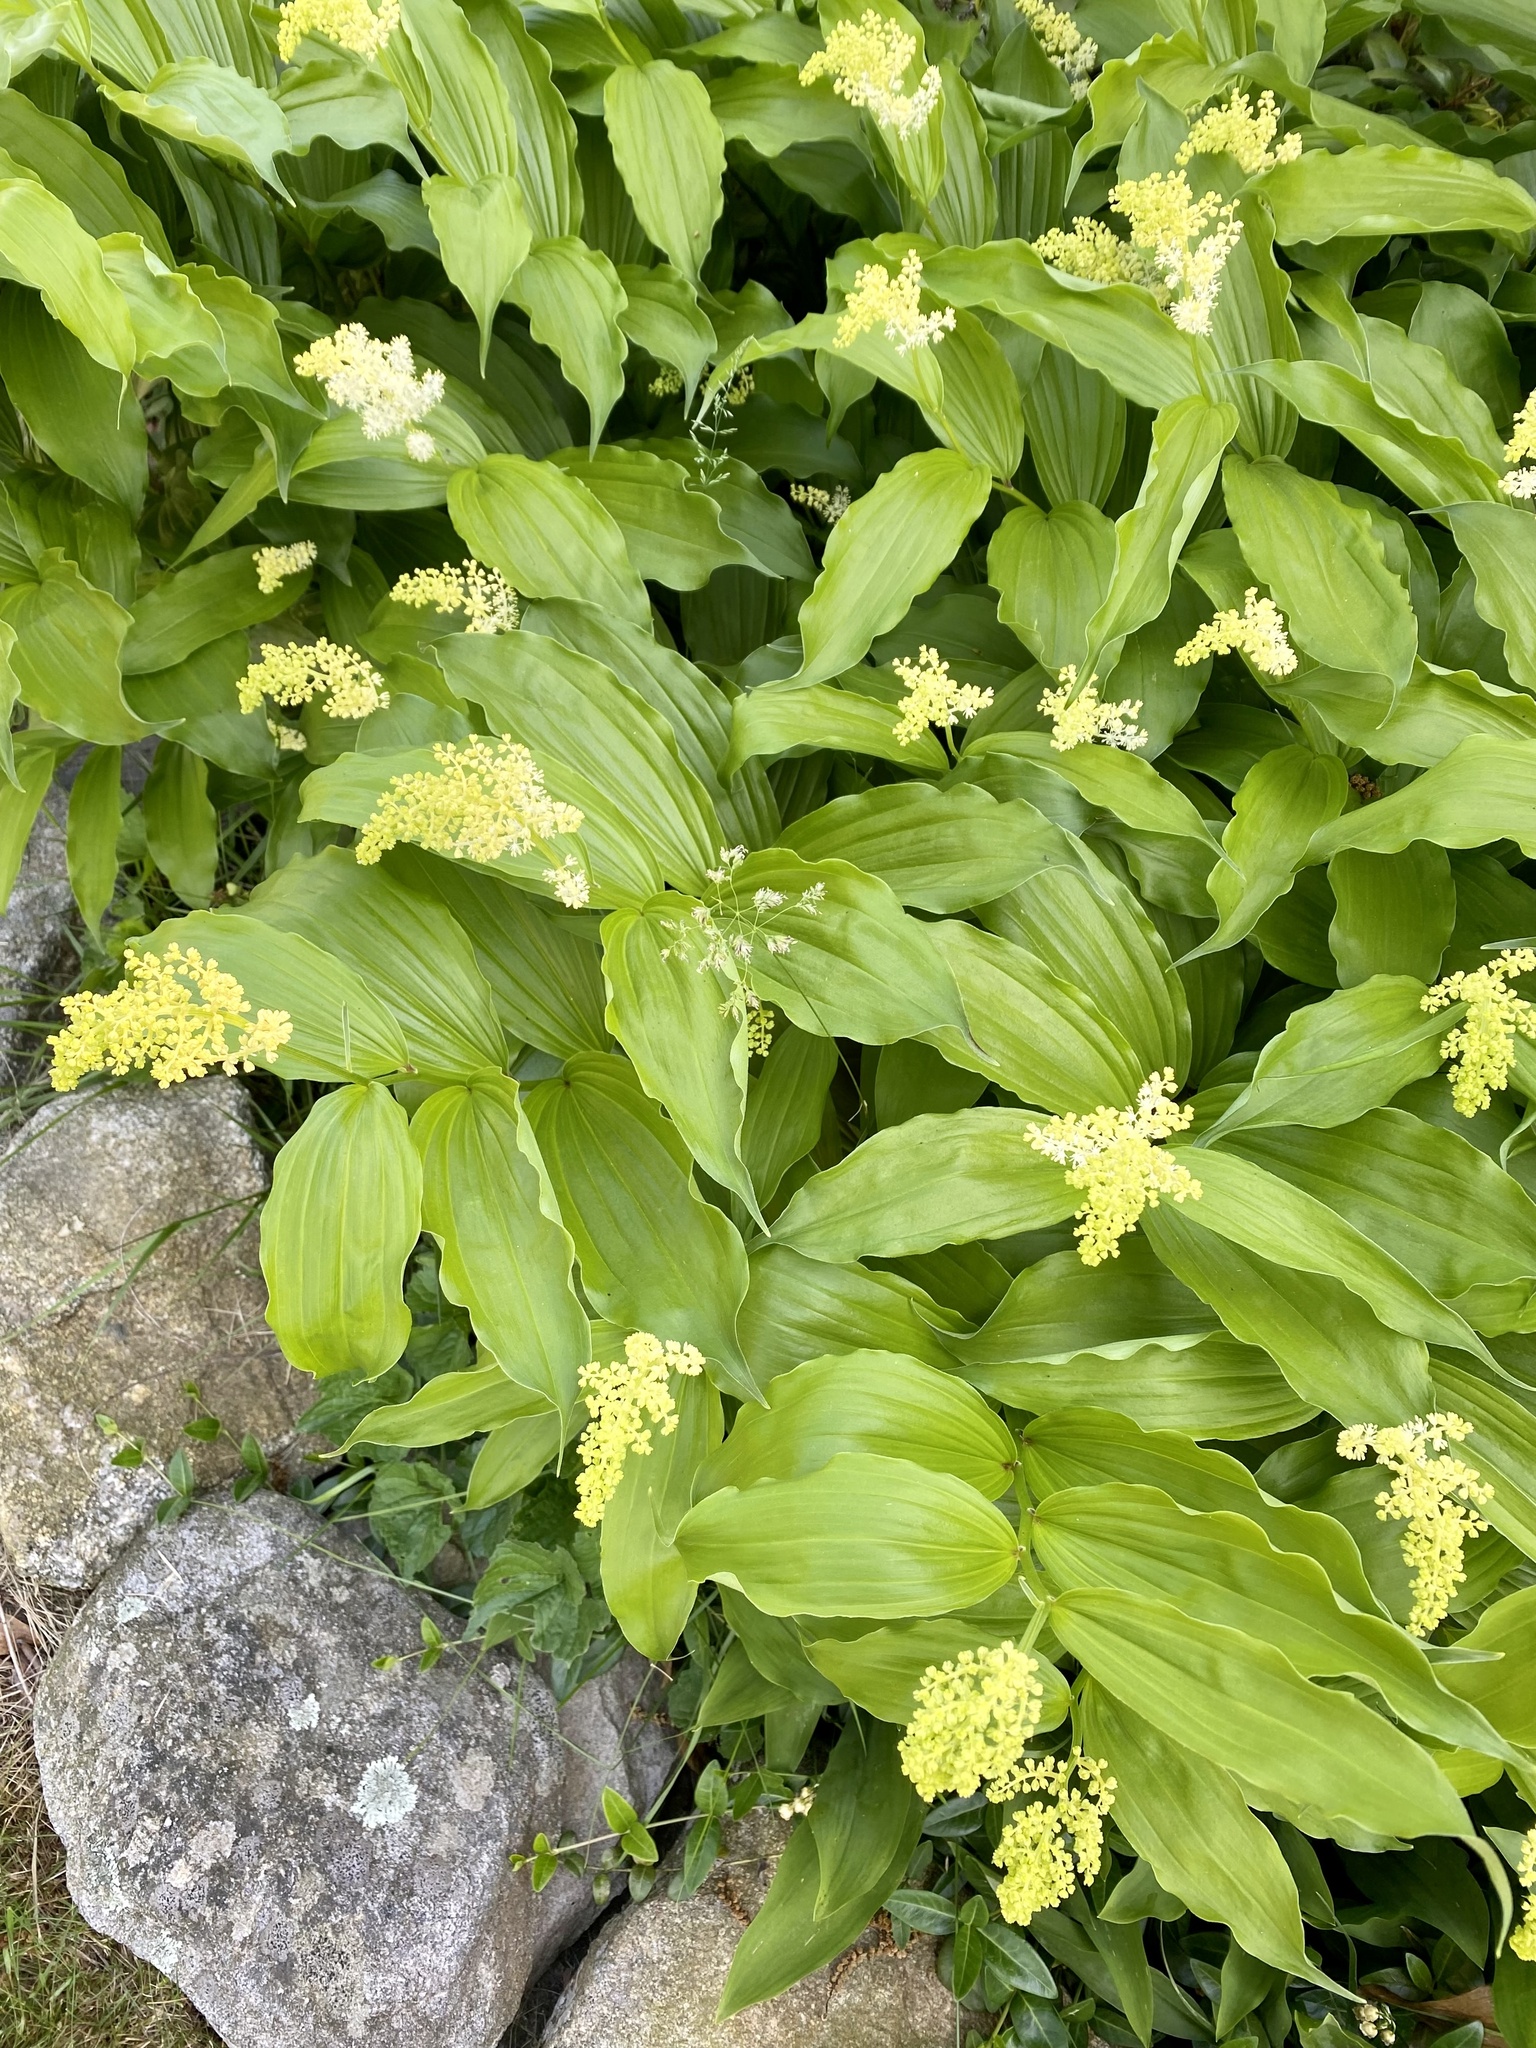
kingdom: Plantae
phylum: Tracheophyta
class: Liliopsida
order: Asparagales
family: Asparagaceae
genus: Maianthemum
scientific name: Maianthemum racemosum
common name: False spikenard
